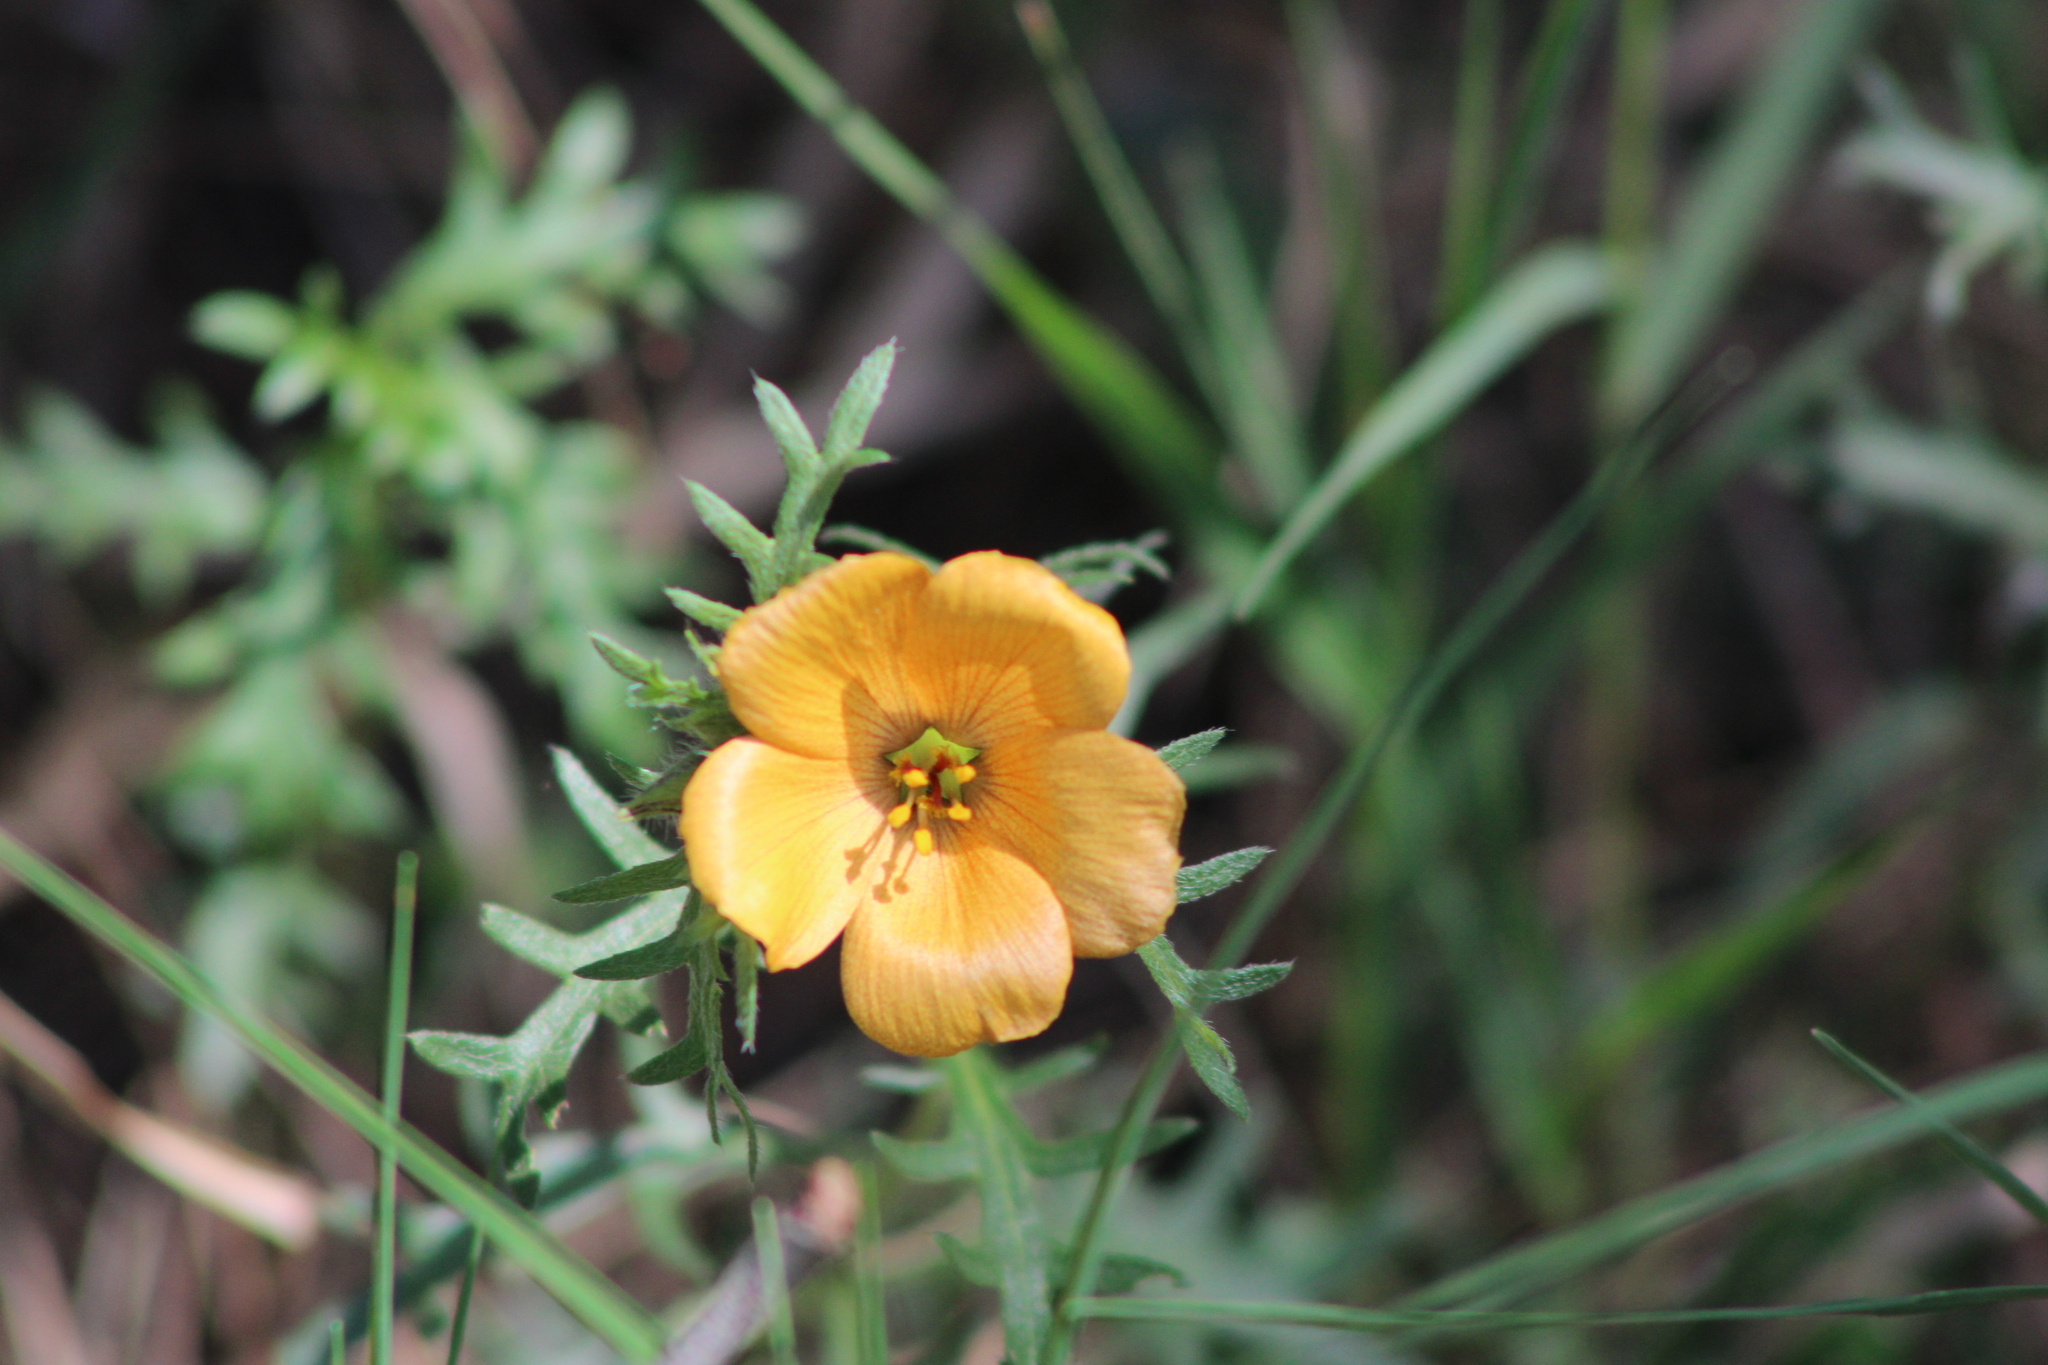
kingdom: Plantae
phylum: Tracheophyta
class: Magnoliopsida
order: Malpighiales
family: Turneraceae
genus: Turnera
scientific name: Turnera sidoides
